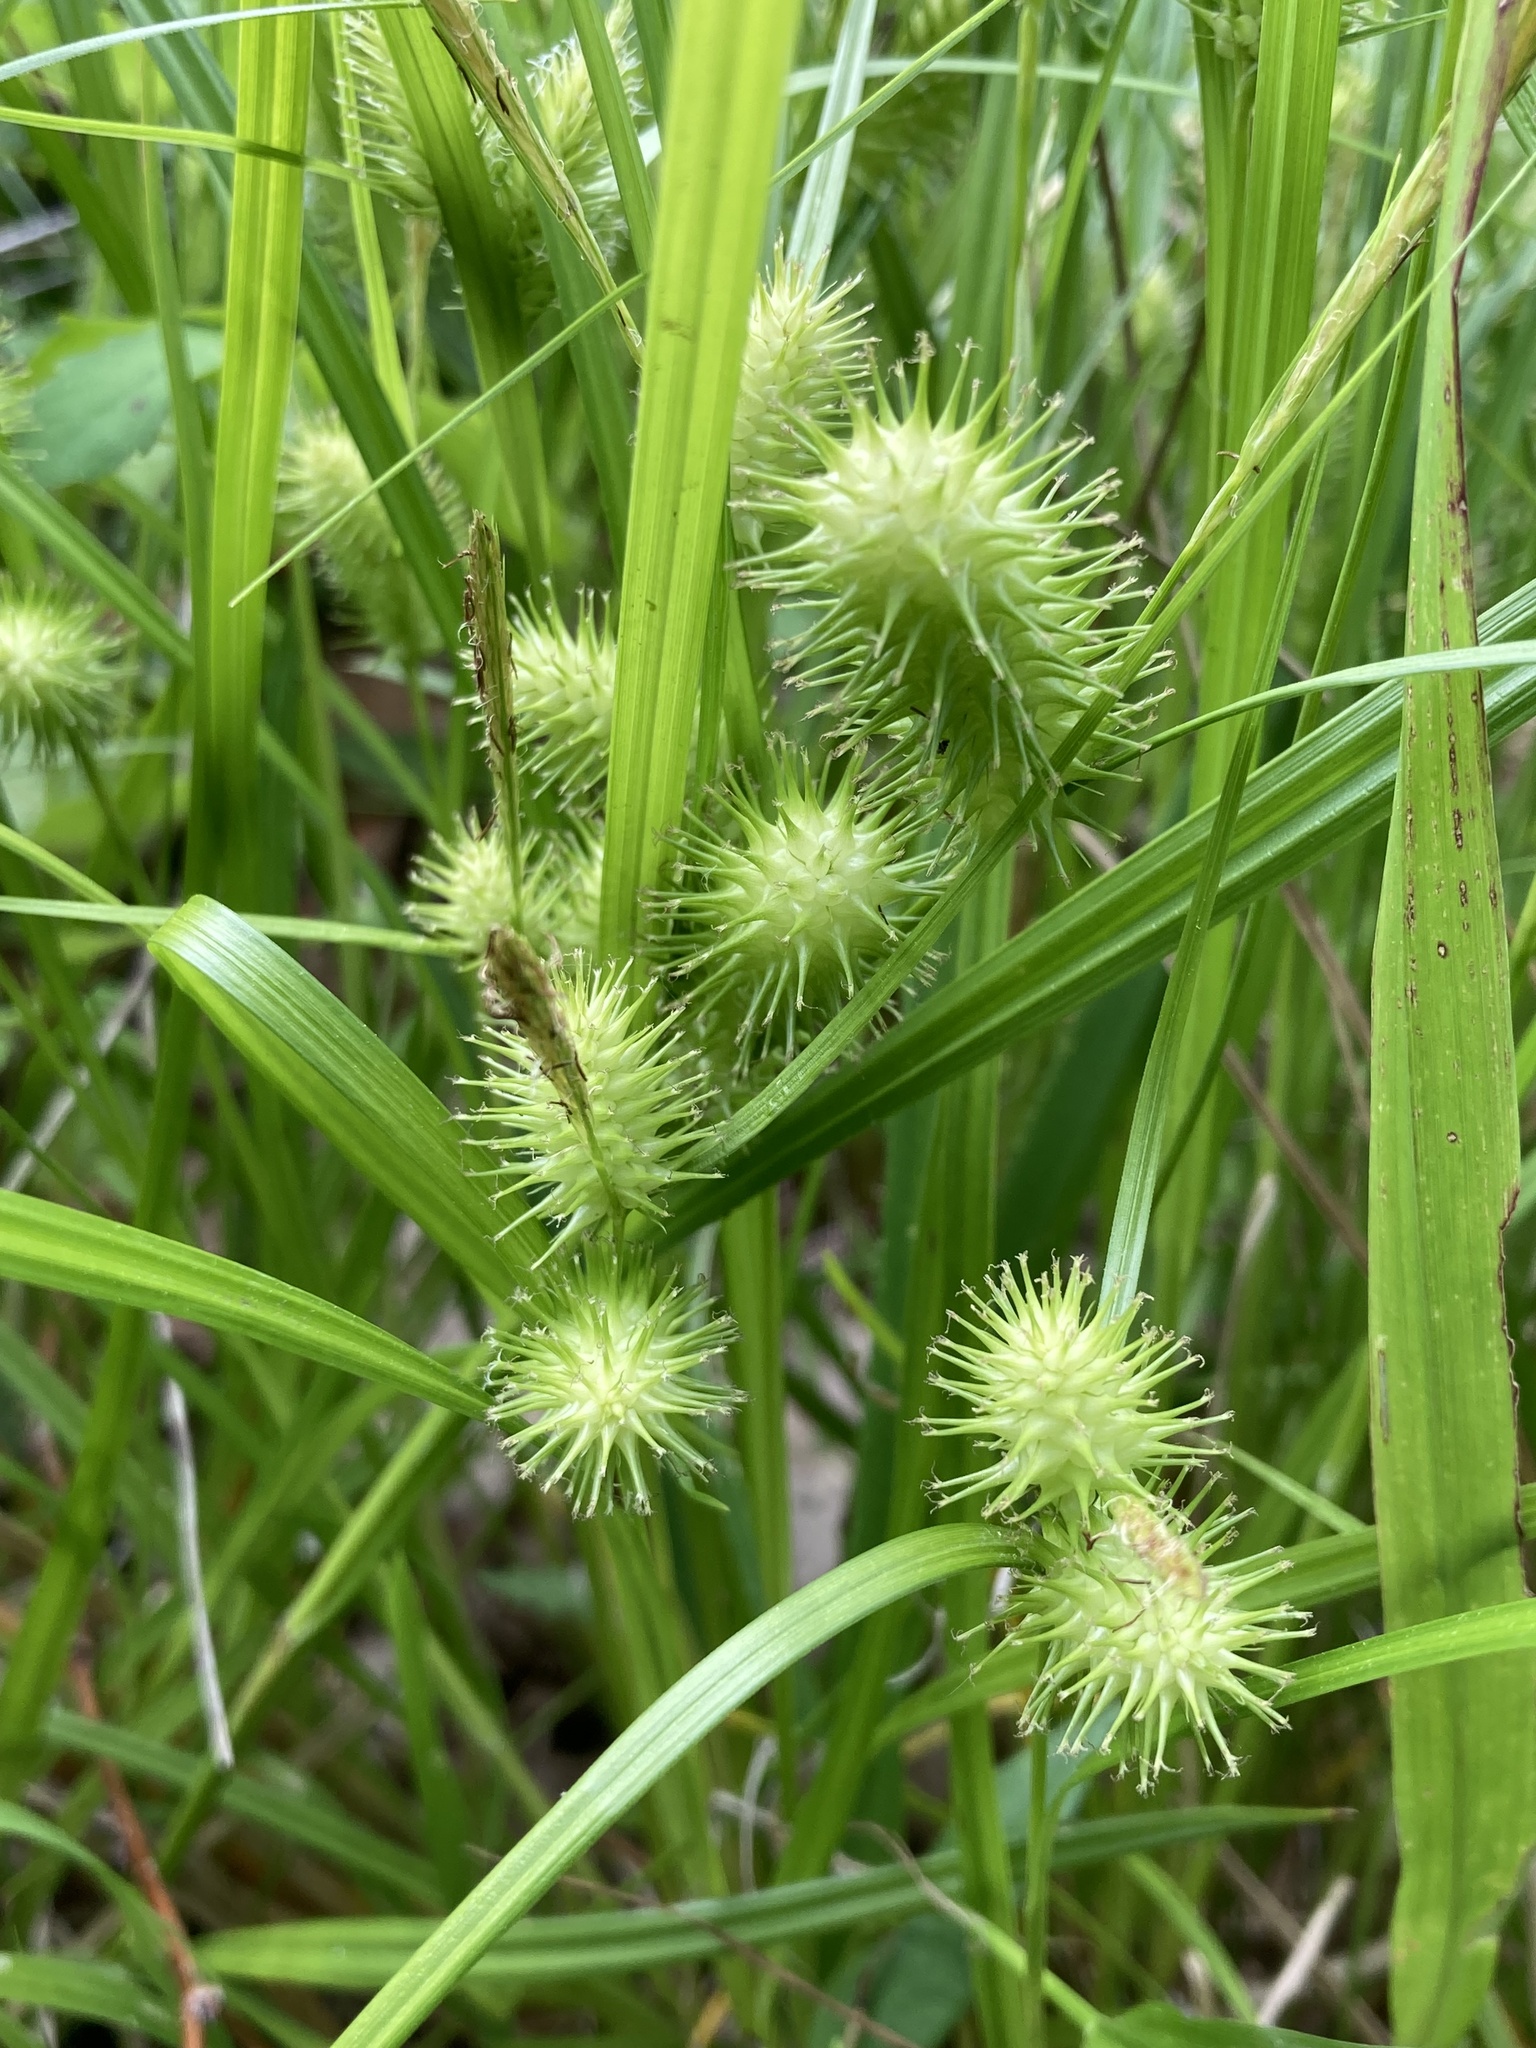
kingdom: Plantae
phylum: Tracheophyta
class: Liliopsida
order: Poales
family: Cyperaceae
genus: Carex
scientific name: Carex lurida
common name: Sallow sedge
